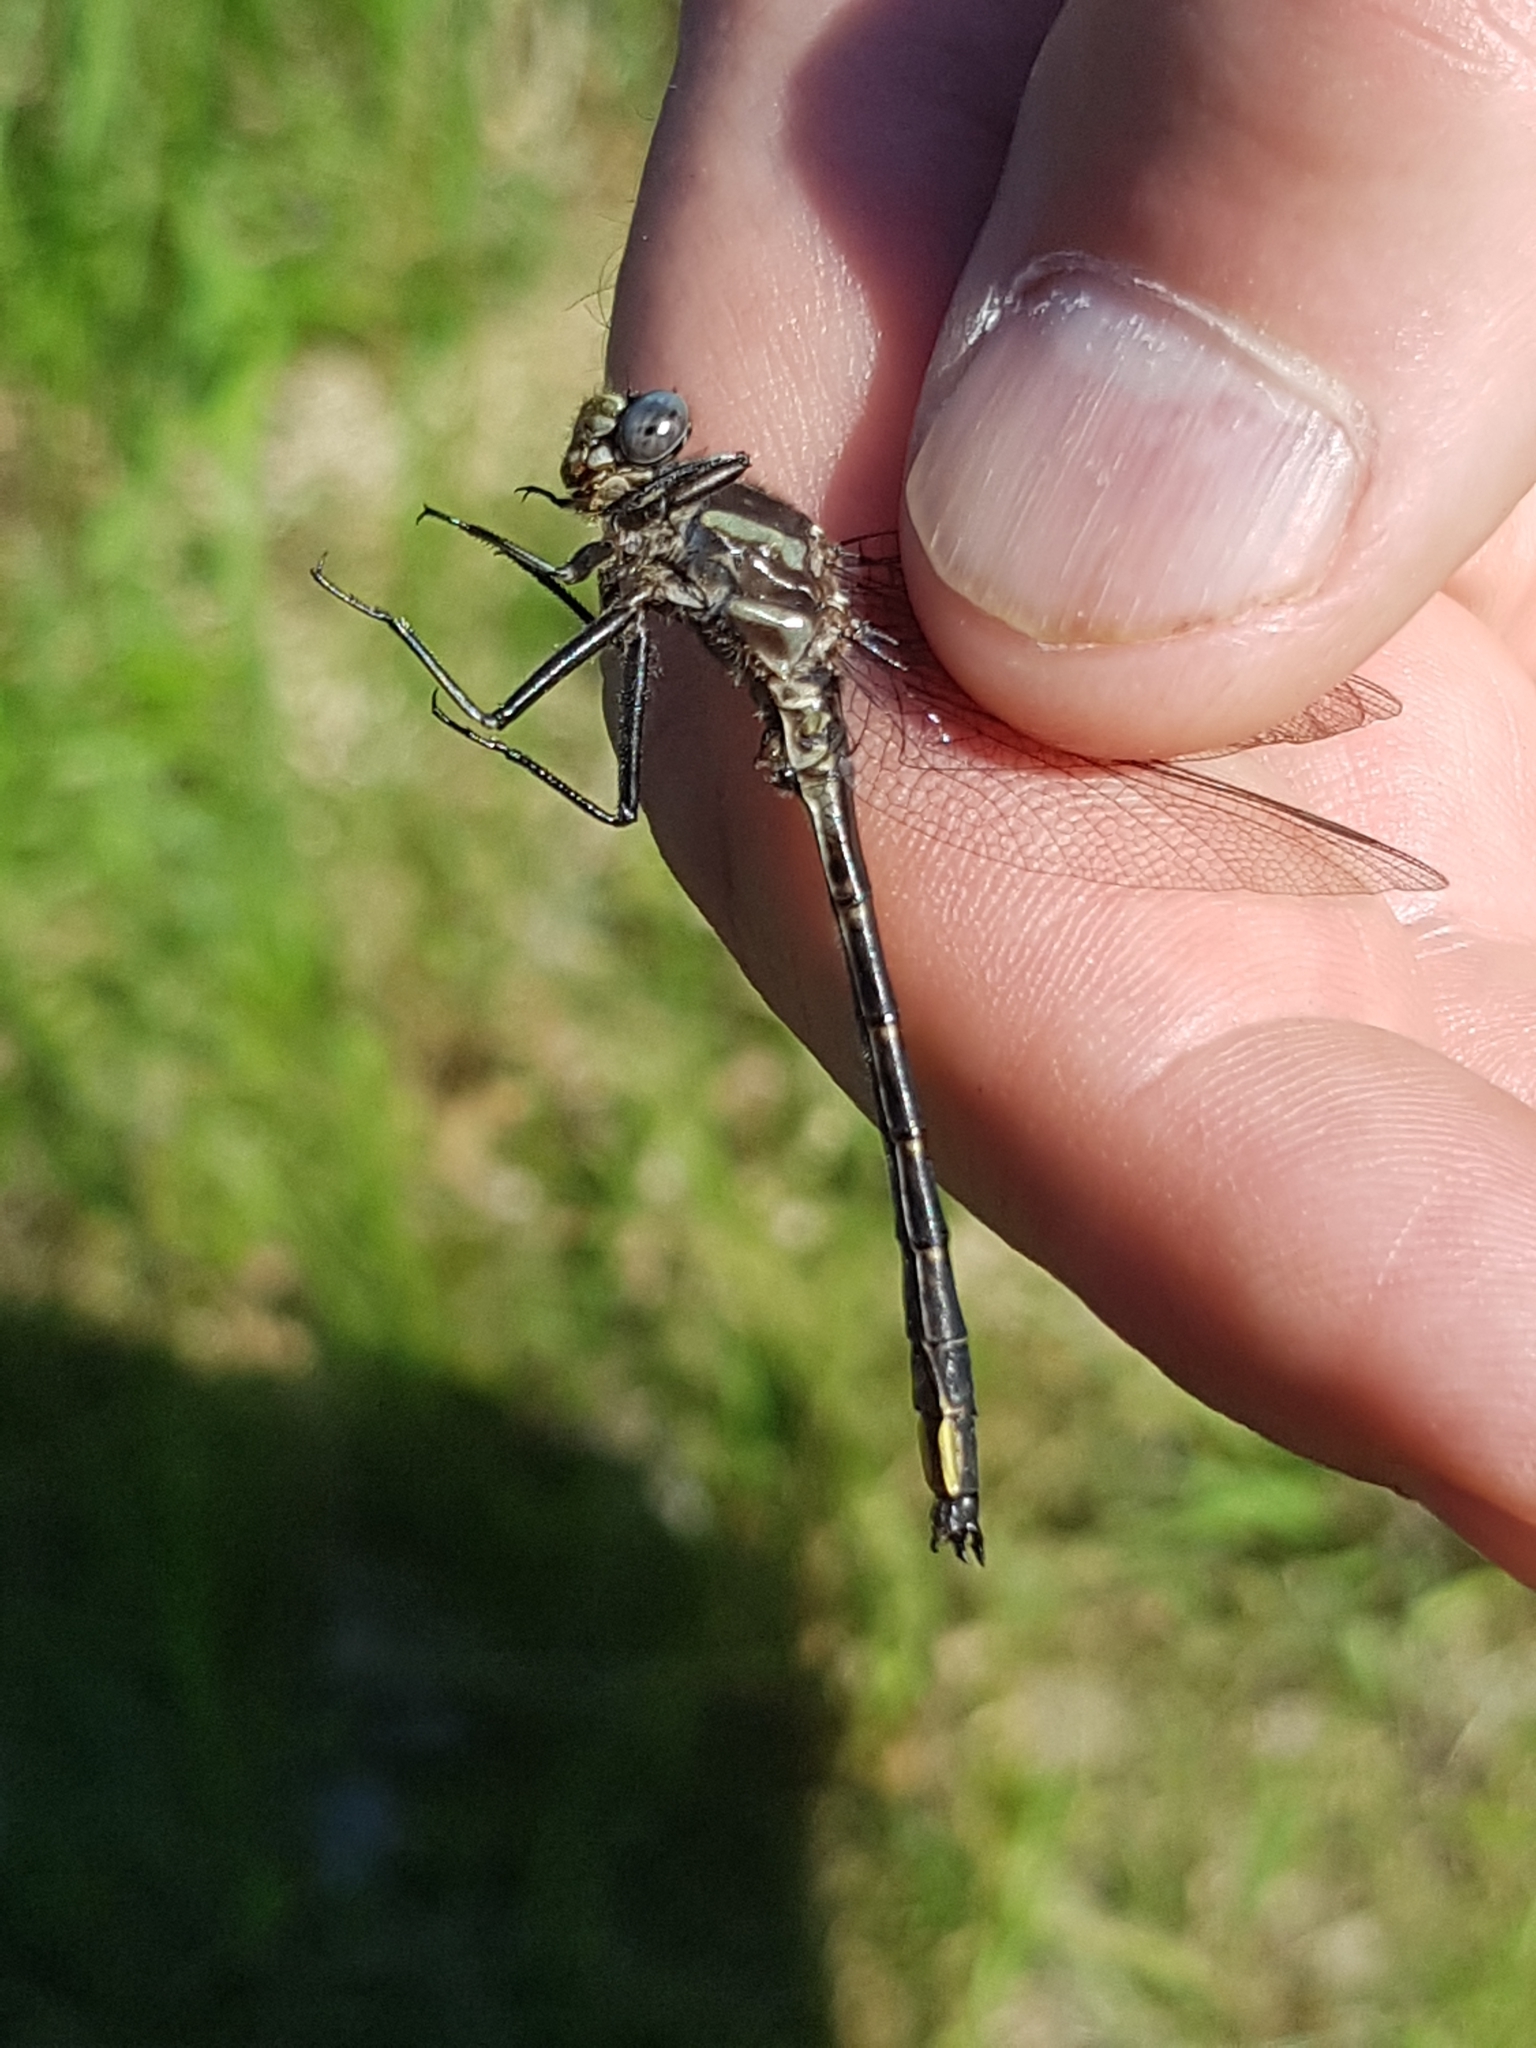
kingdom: Animalia
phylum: Arthropoda
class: Insecta
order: Odonata
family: Gomphidae
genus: Phanogomphus
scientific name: Phanogomphus spicatus
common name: Dusky clubtail
